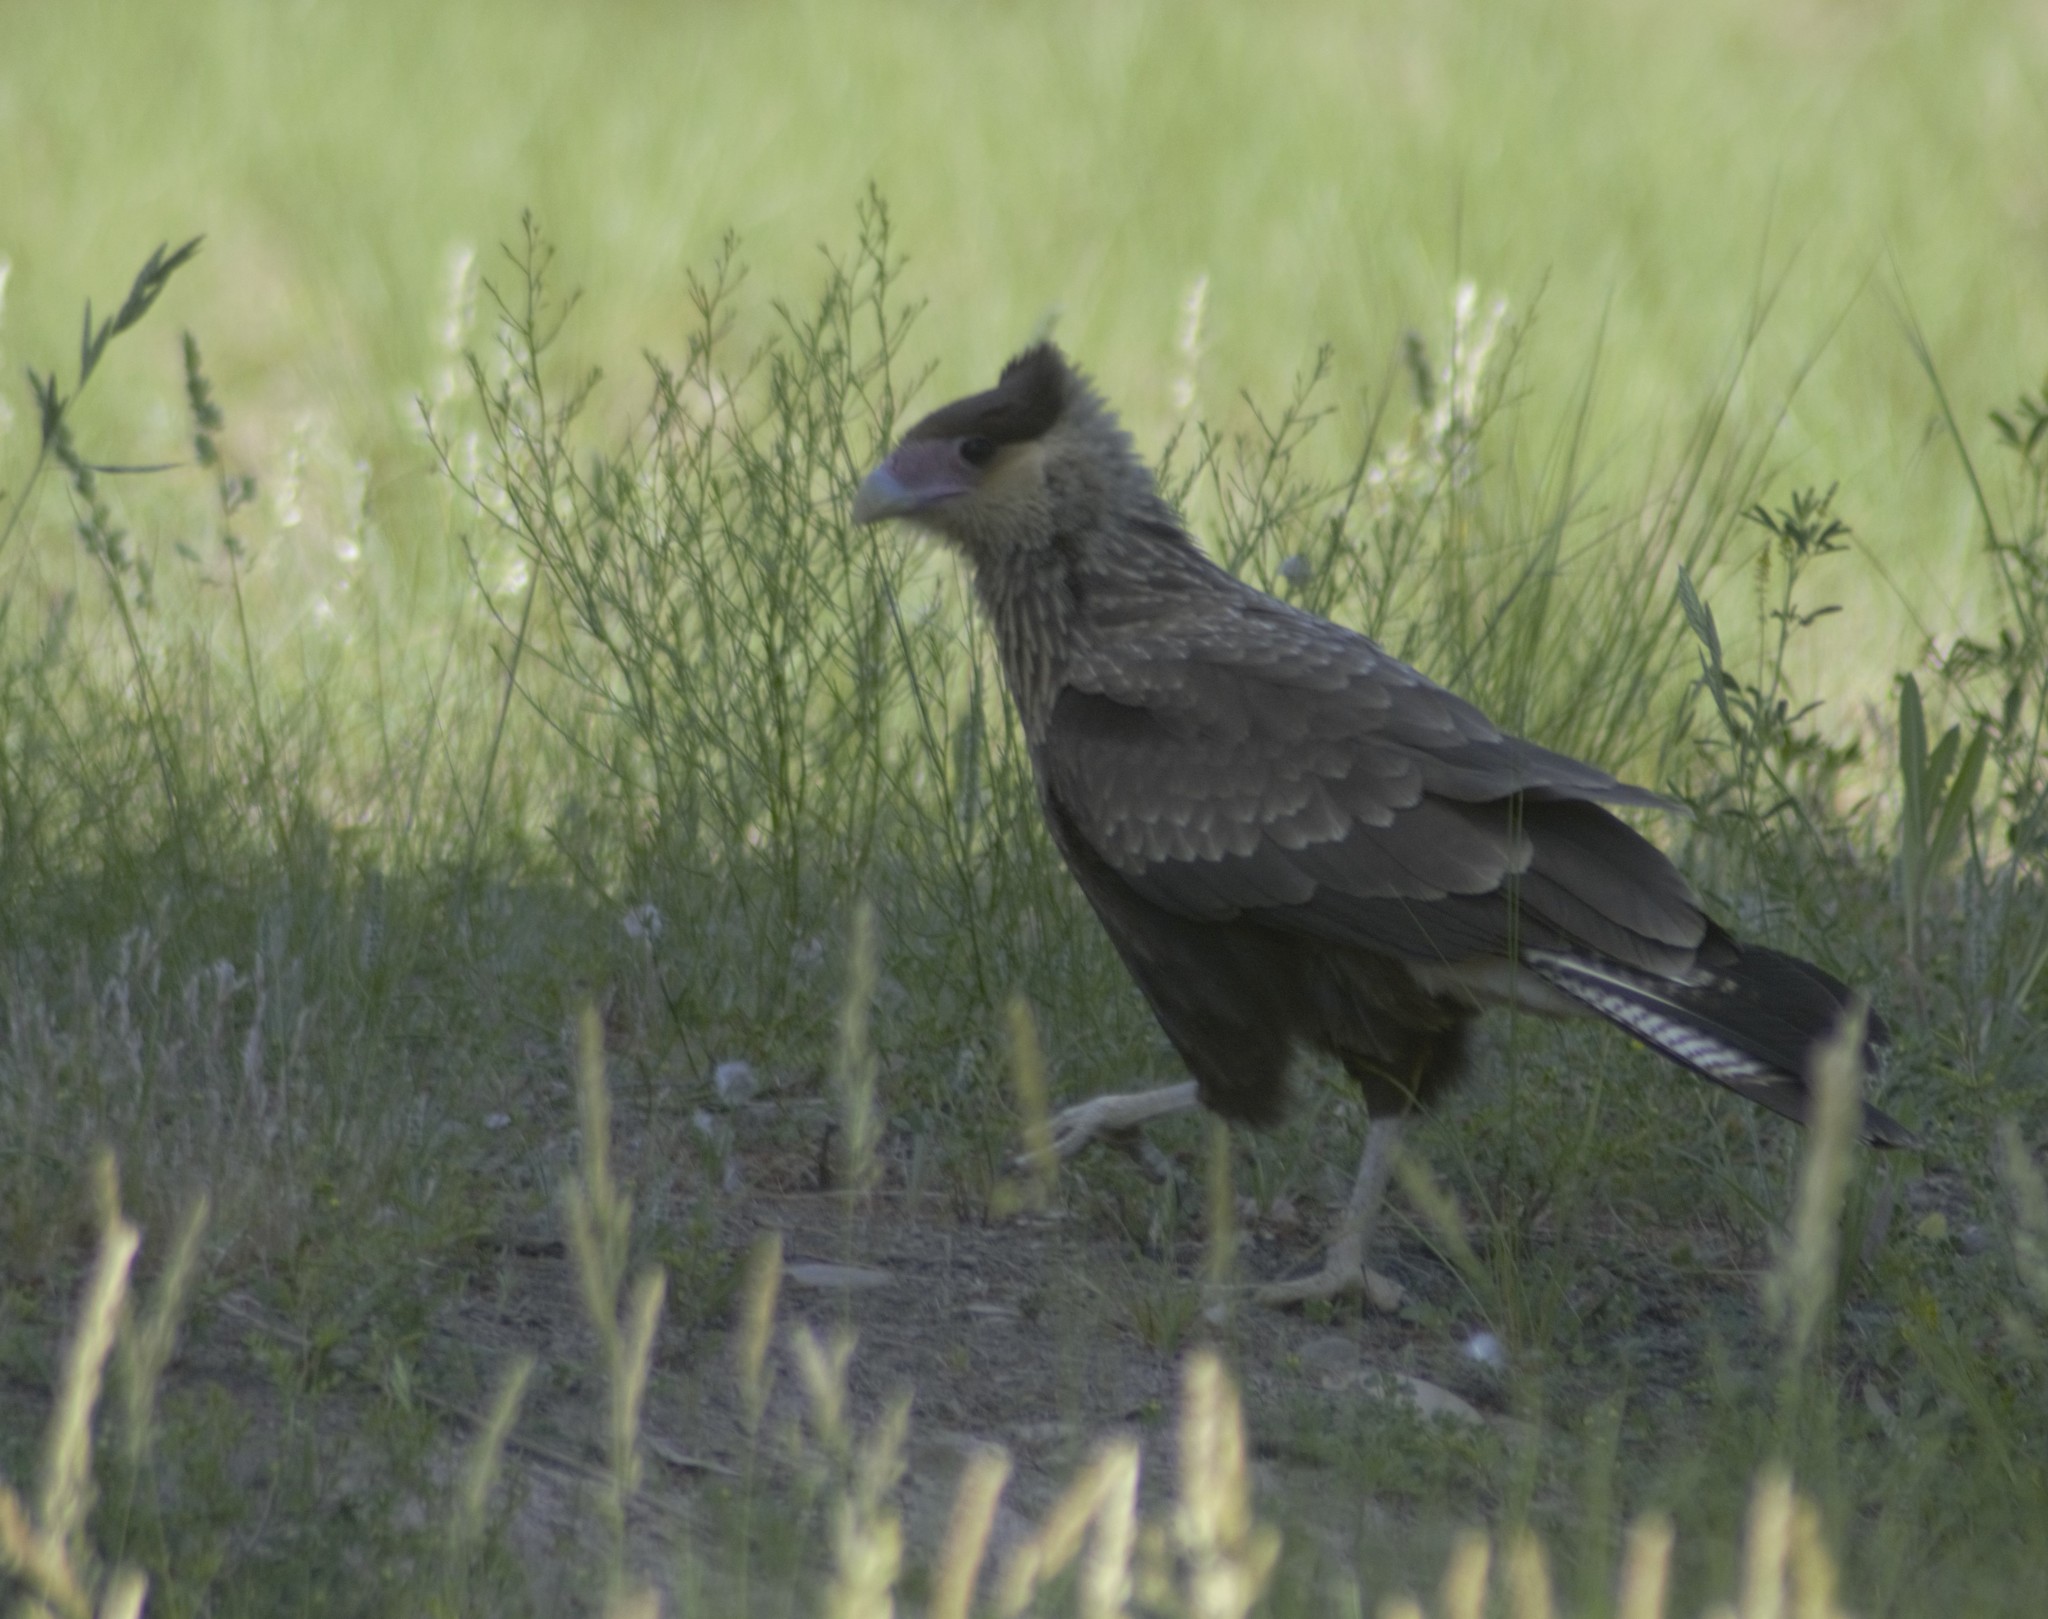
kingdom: Animalia
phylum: Chordata
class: Aves
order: Falconiformes
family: Falconidae
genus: Caracara
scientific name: Caracara plancus
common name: Southern caracara
